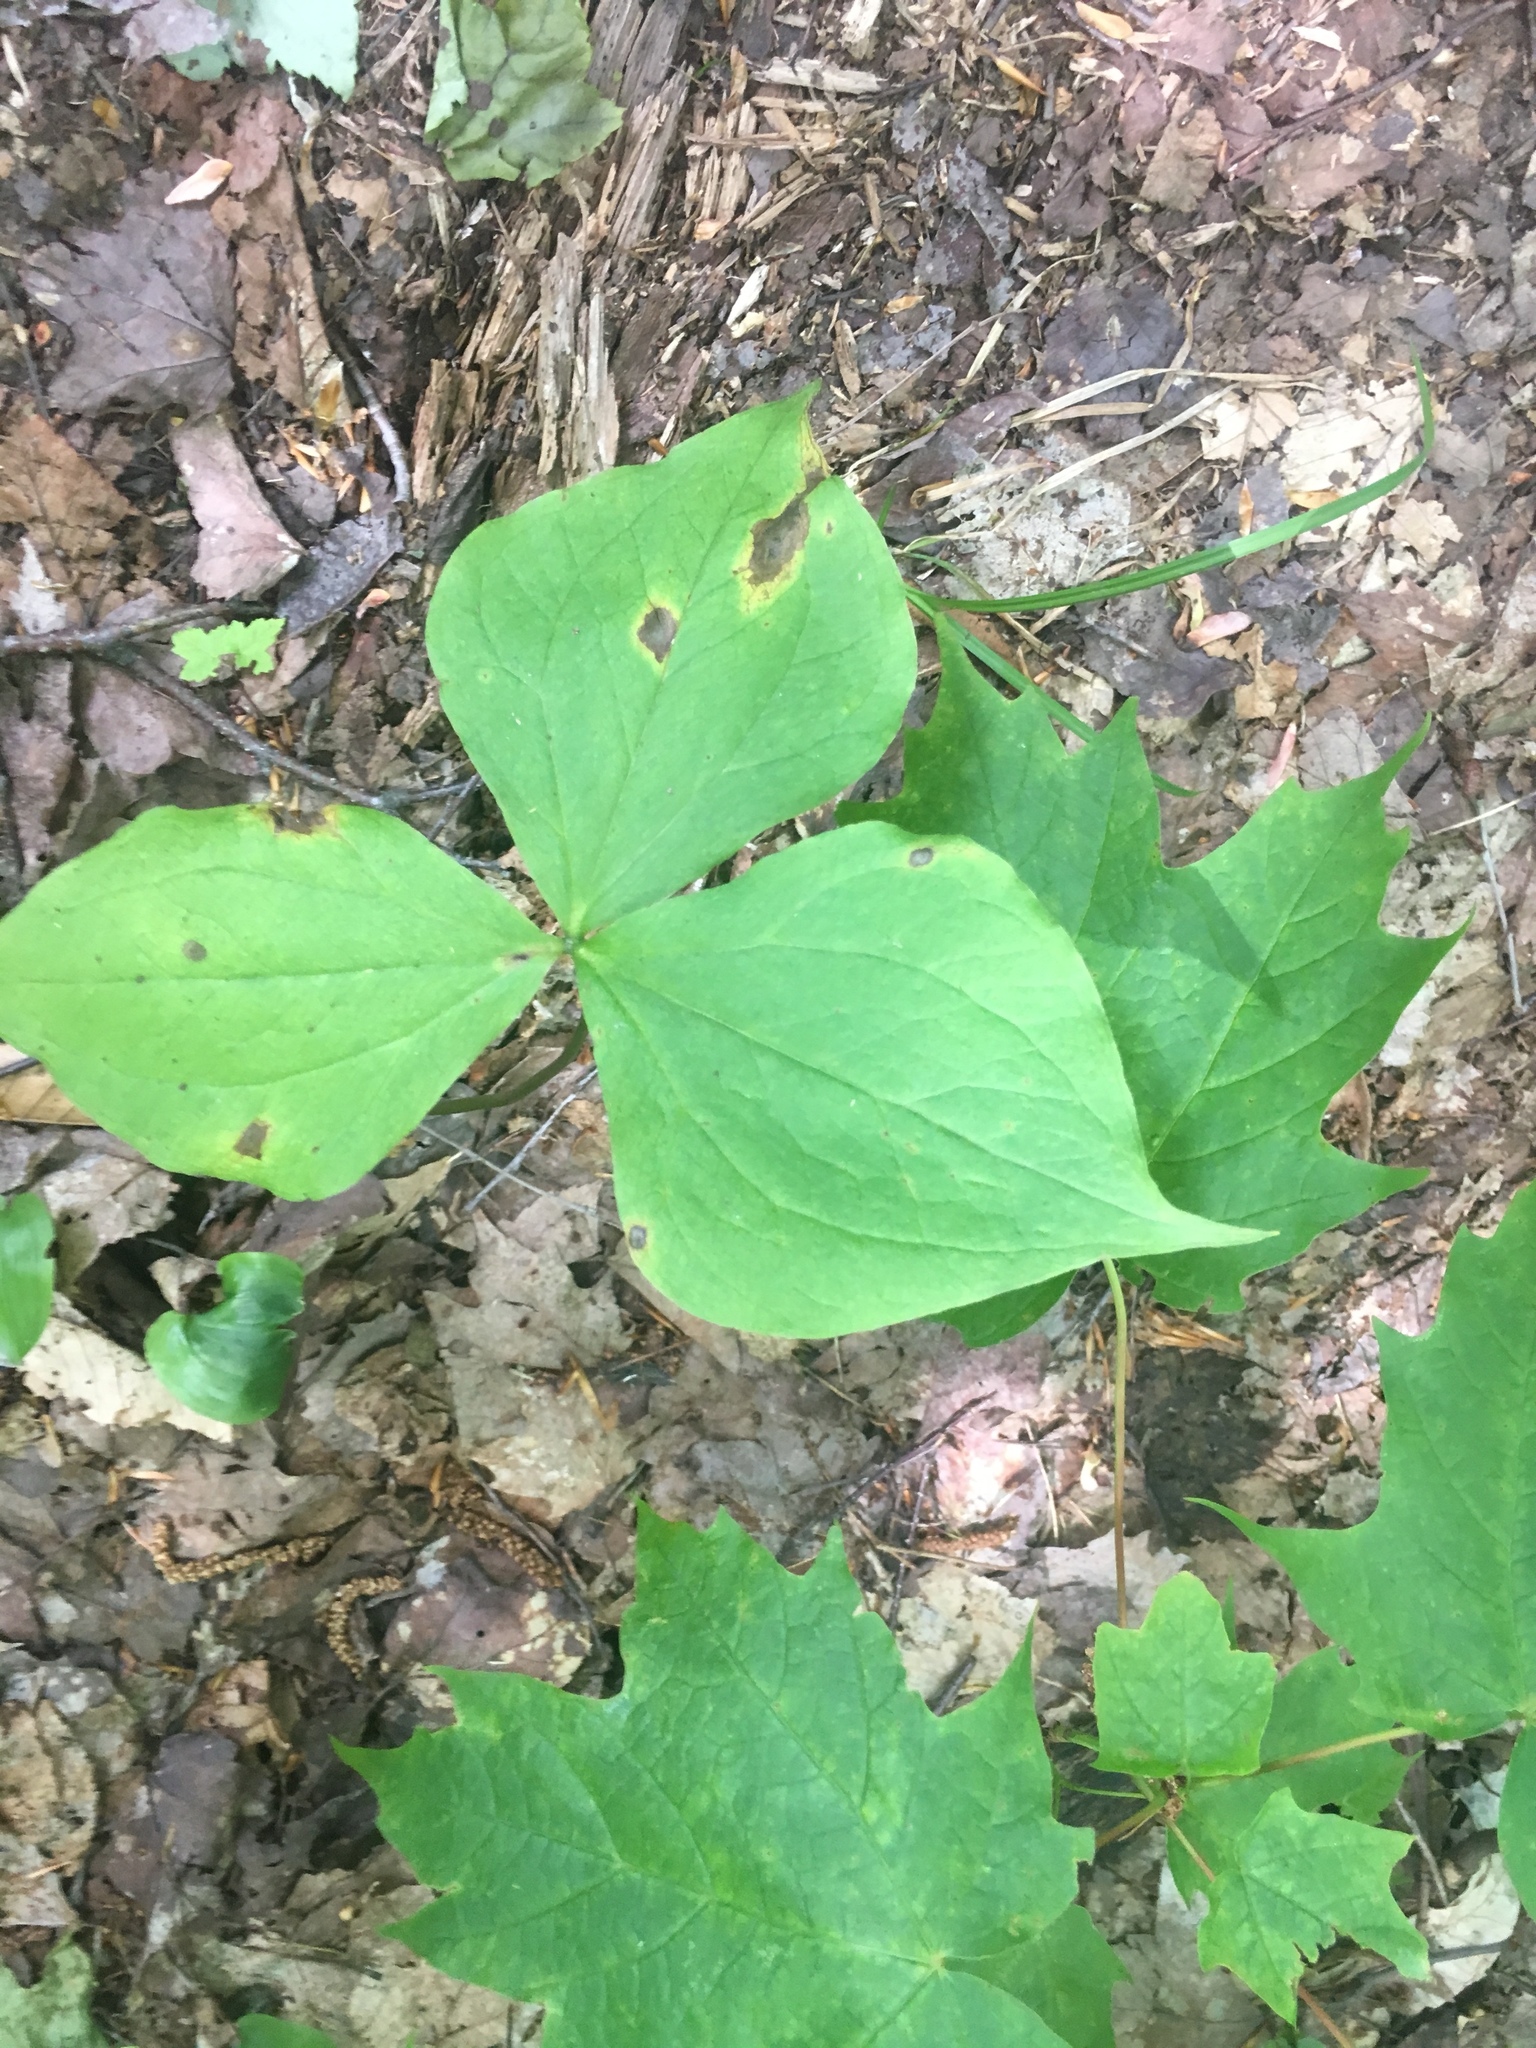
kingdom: Plantae
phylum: Tracheophyta
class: Liliopsida
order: Liliales
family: Melanthiaceae
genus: Trillium
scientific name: Trillium erectum
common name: Purple trillium
